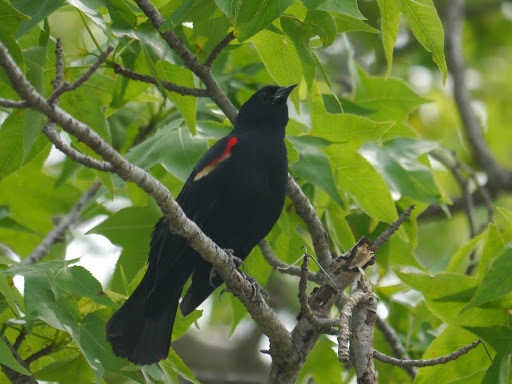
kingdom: Animalia
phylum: Chordata
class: Aves
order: Passeriformes
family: Icteridae
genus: Agelaius
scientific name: Agelaius phoeniceus
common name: Red-winged blackbird
